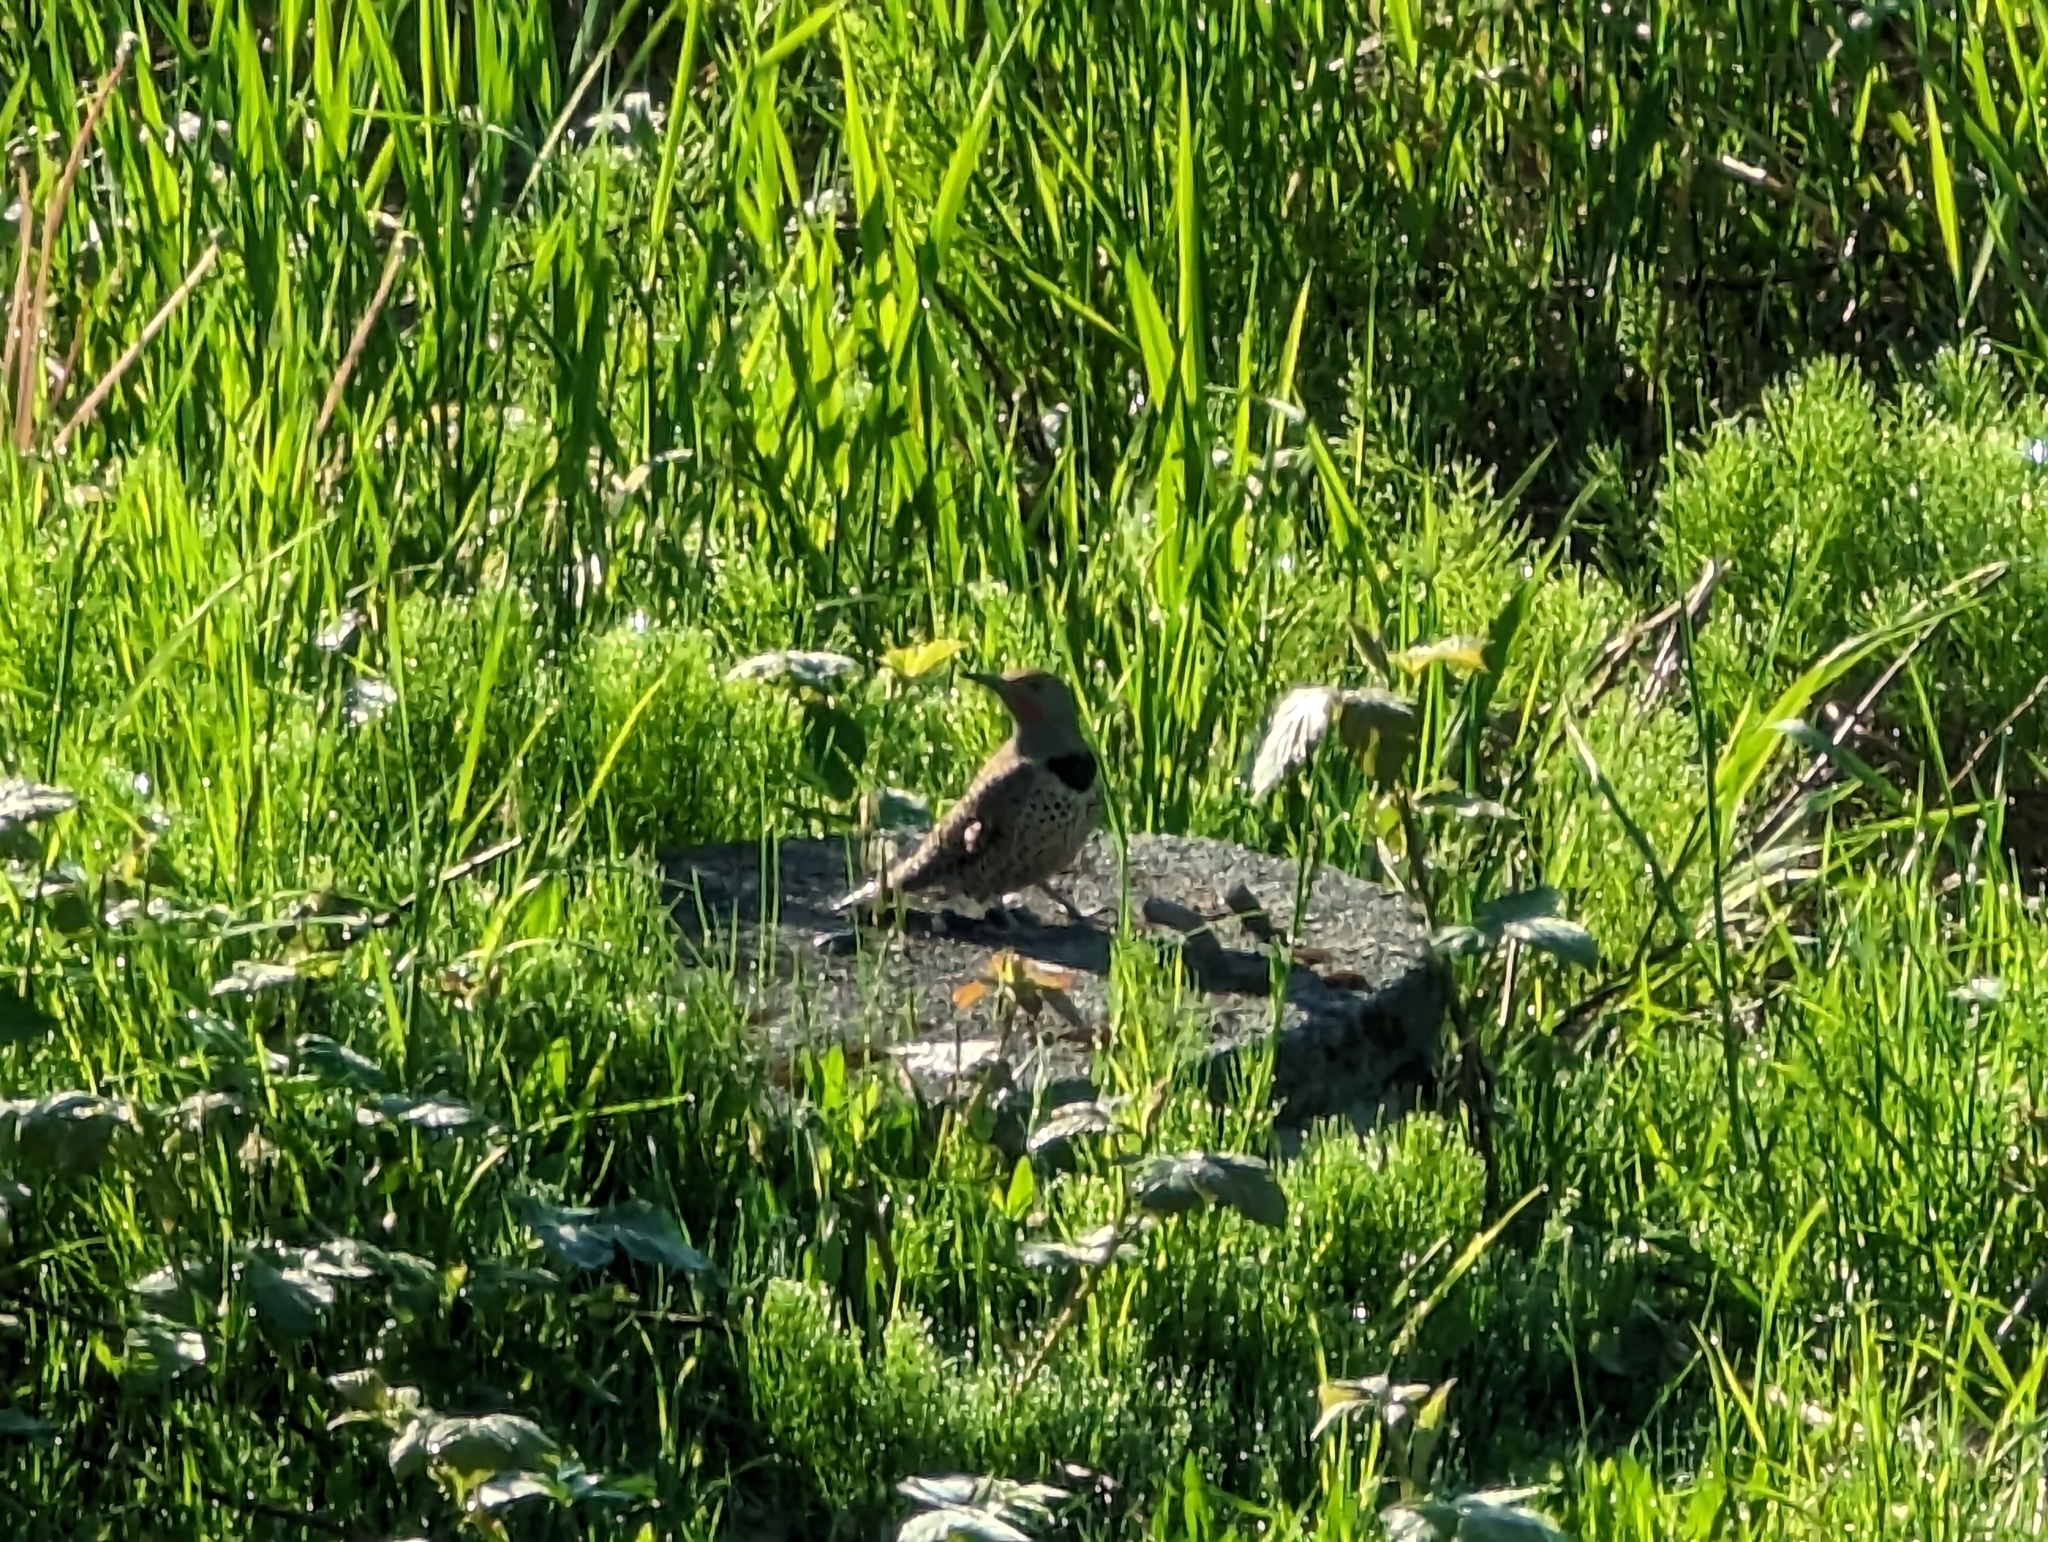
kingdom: Animalia
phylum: Chordata
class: Aves
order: Piciformes
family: Picidae
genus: Colaptes
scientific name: Colaptes auratus
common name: Northern flicker
